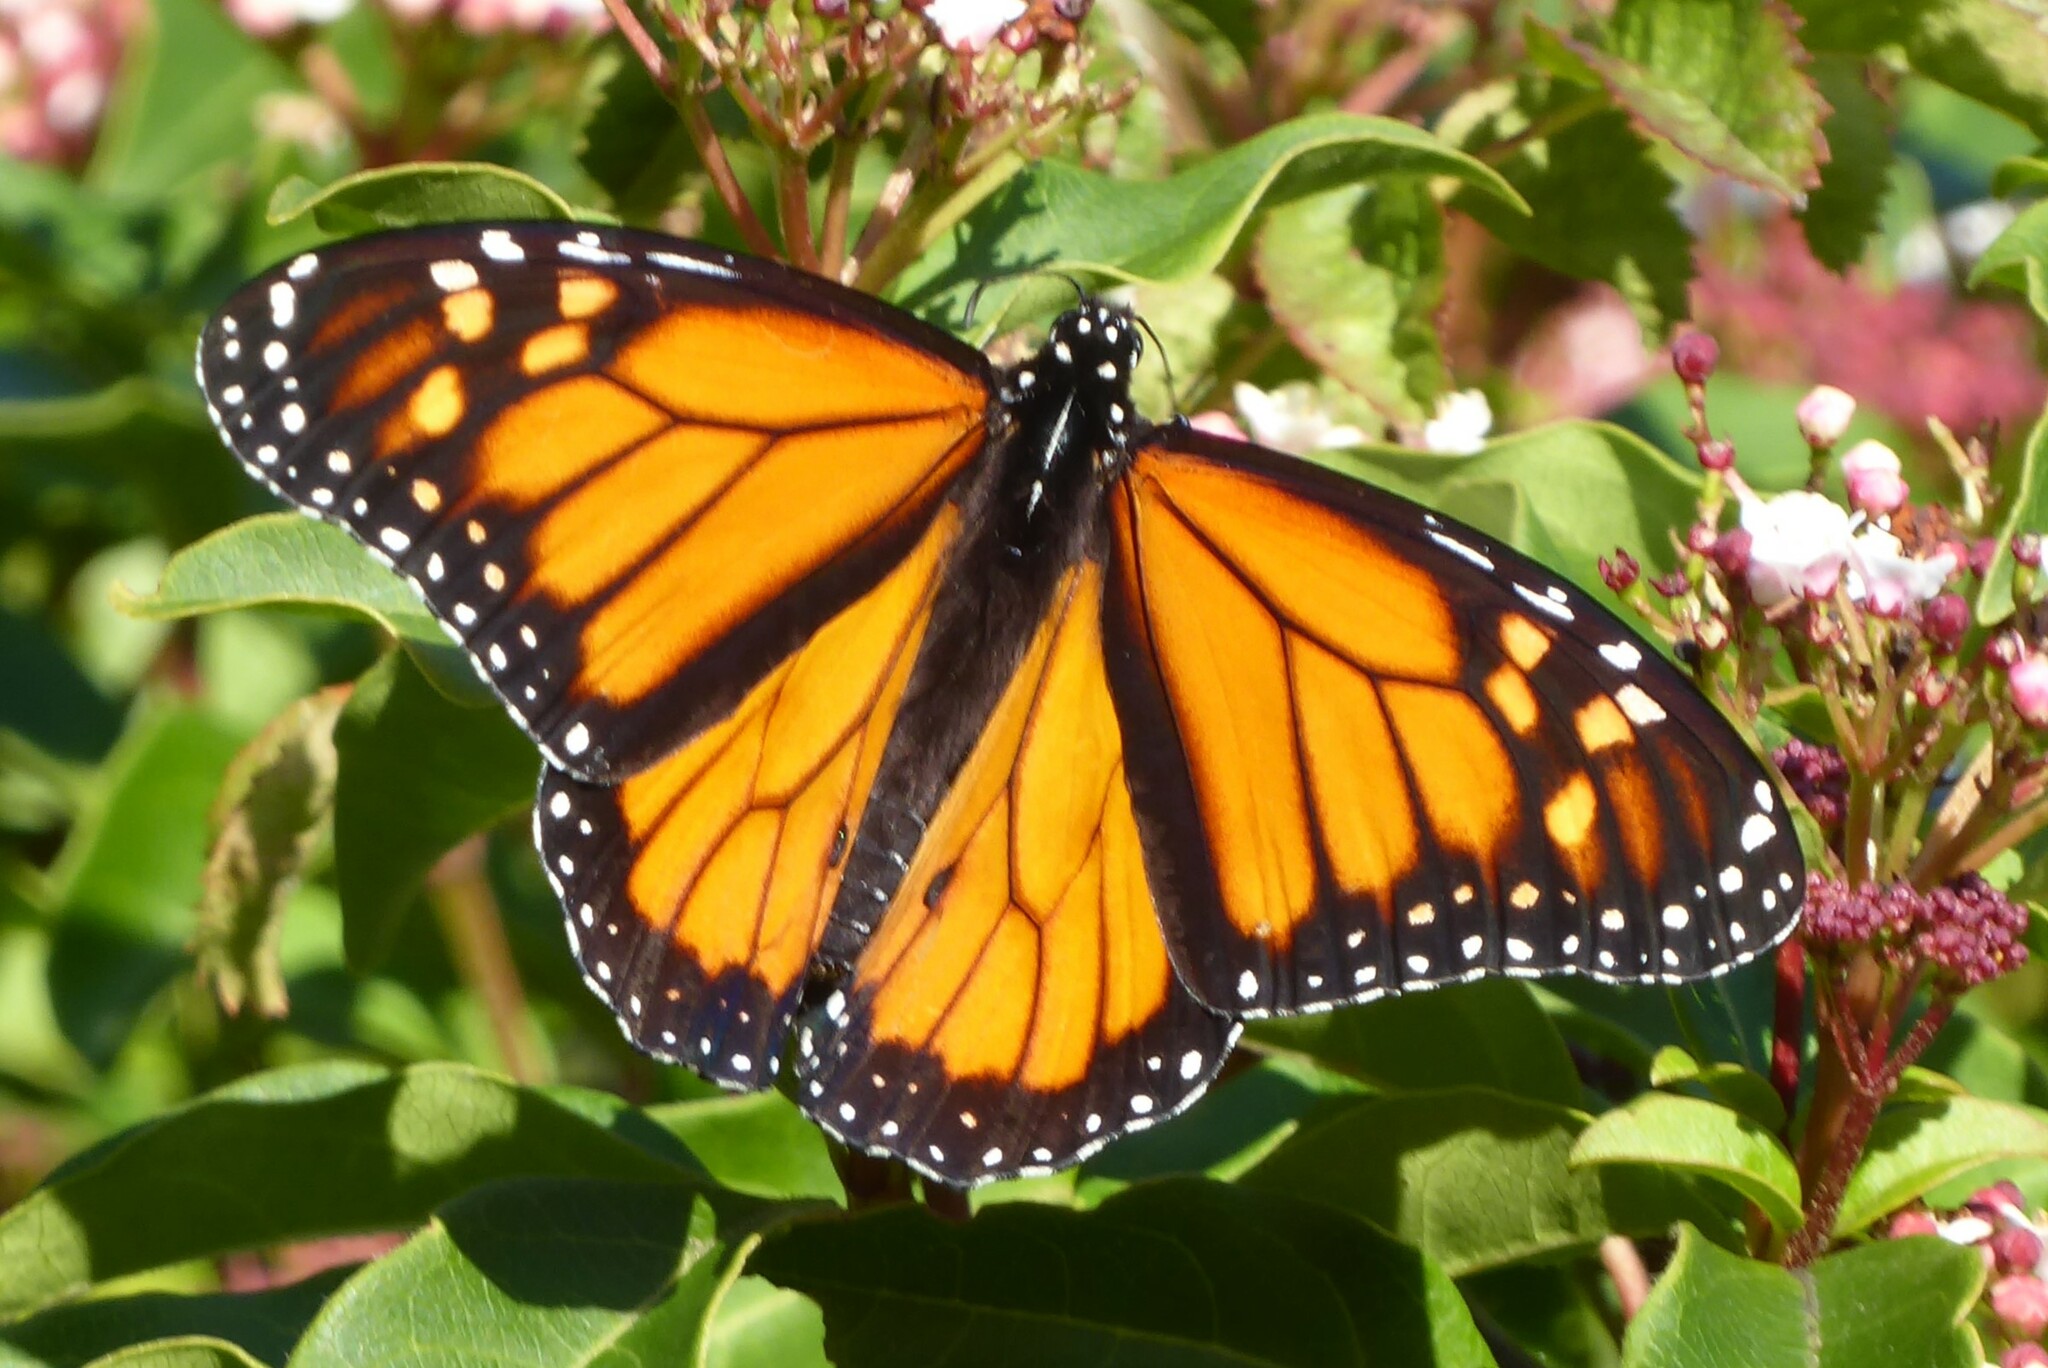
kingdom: Animalia
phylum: Arthropoda
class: Insecta
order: Lepidoptera
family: Nymphalidae
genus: Danaus
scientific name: Danaus plexippus
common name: Monarch
